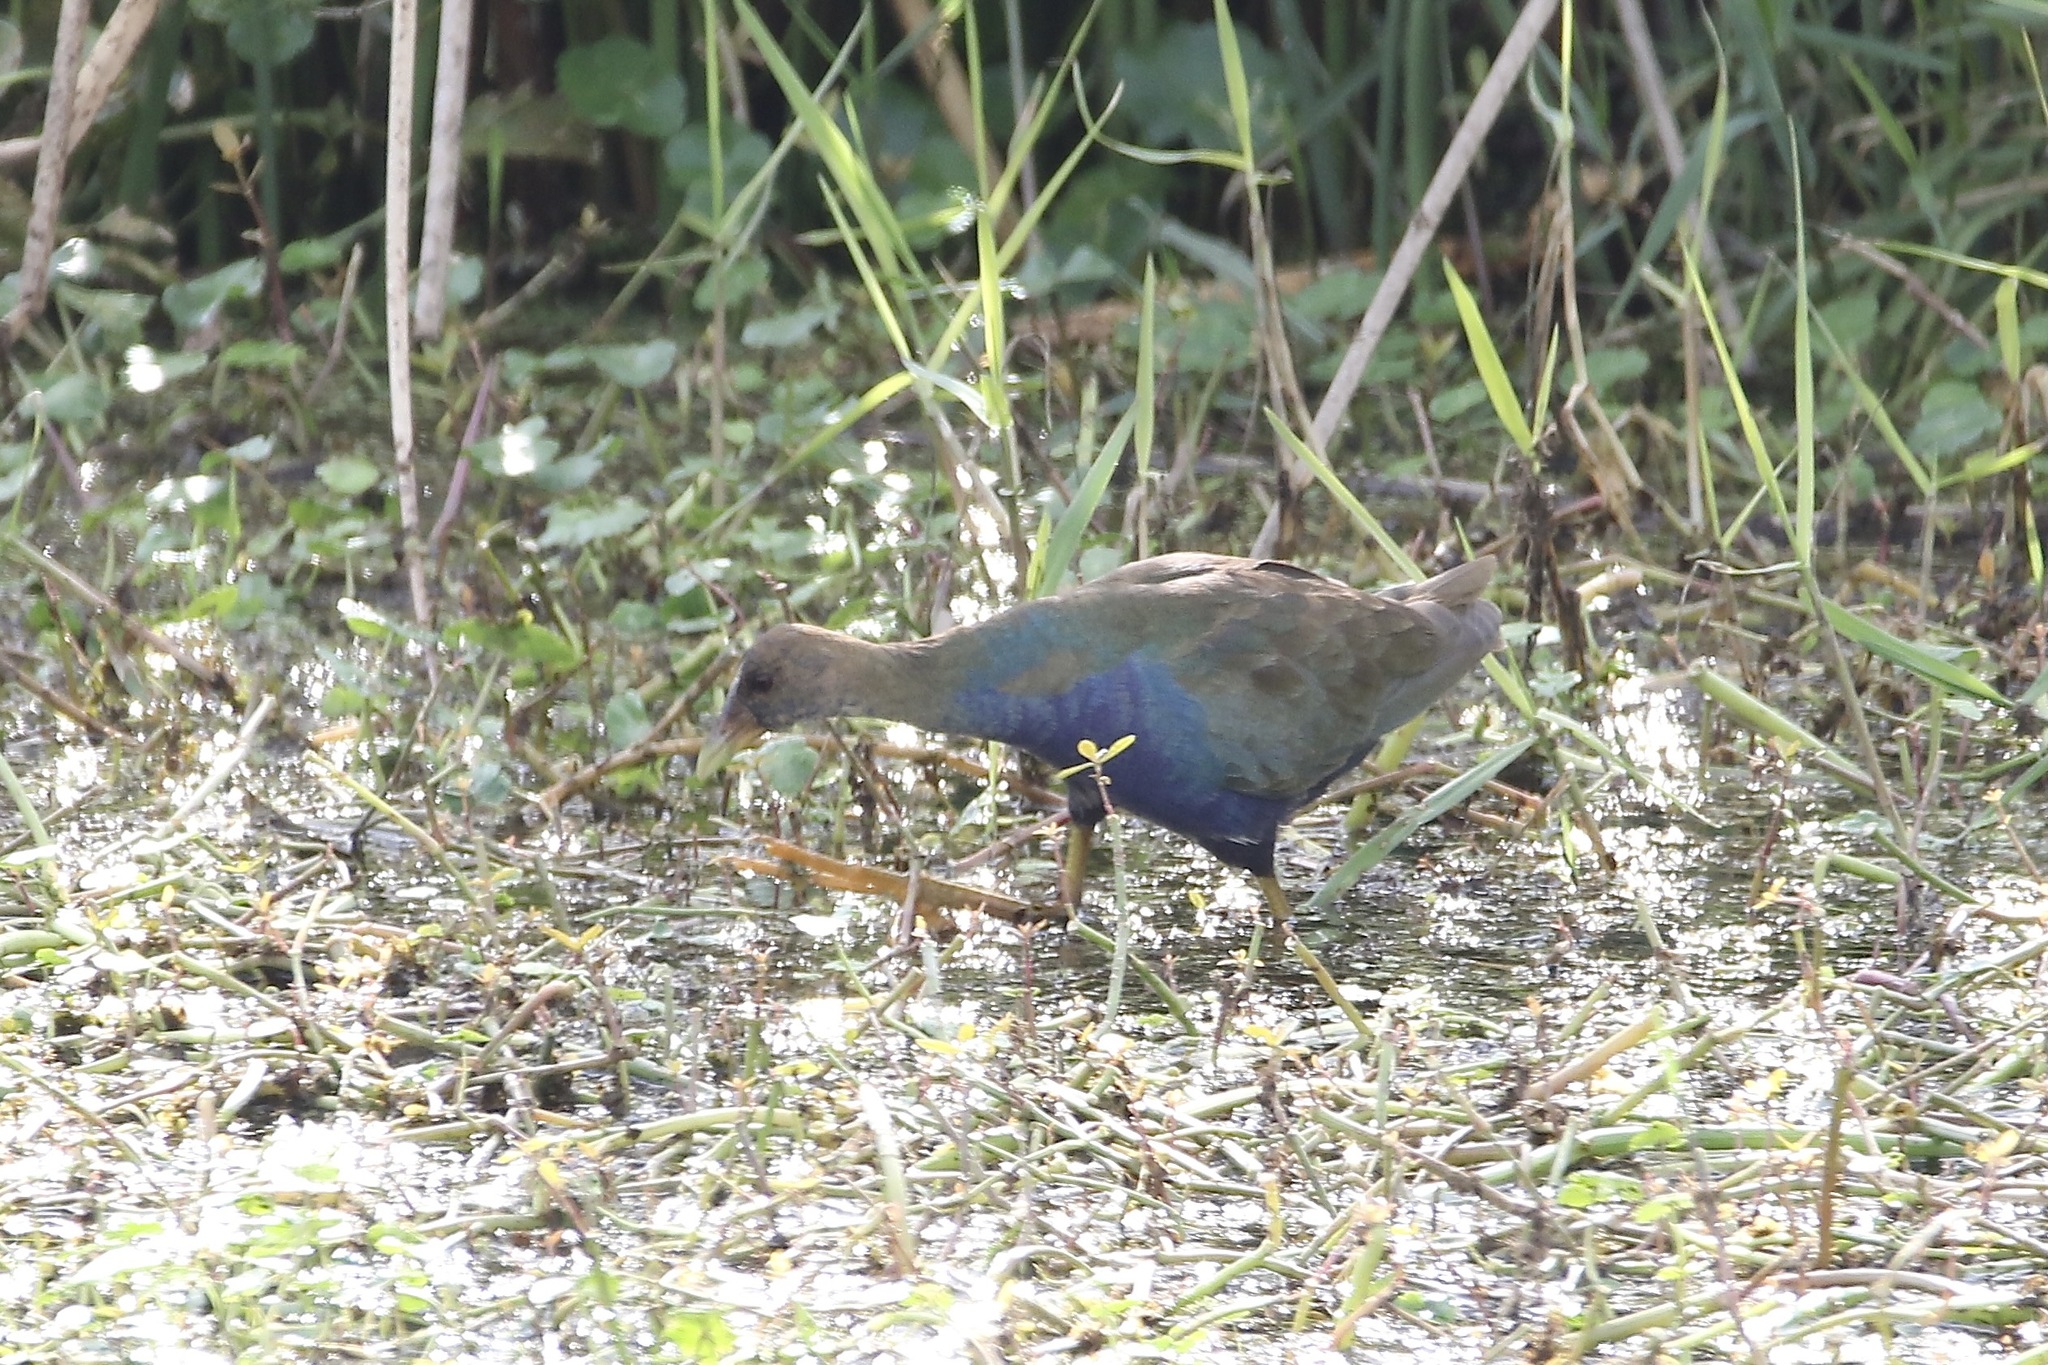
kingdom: Animalia
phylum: Chordata
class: Aves
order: Gruiformes
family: Rallidae
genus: Porphyrio
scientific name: Porphyrio martinica
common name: Purple gallinule
